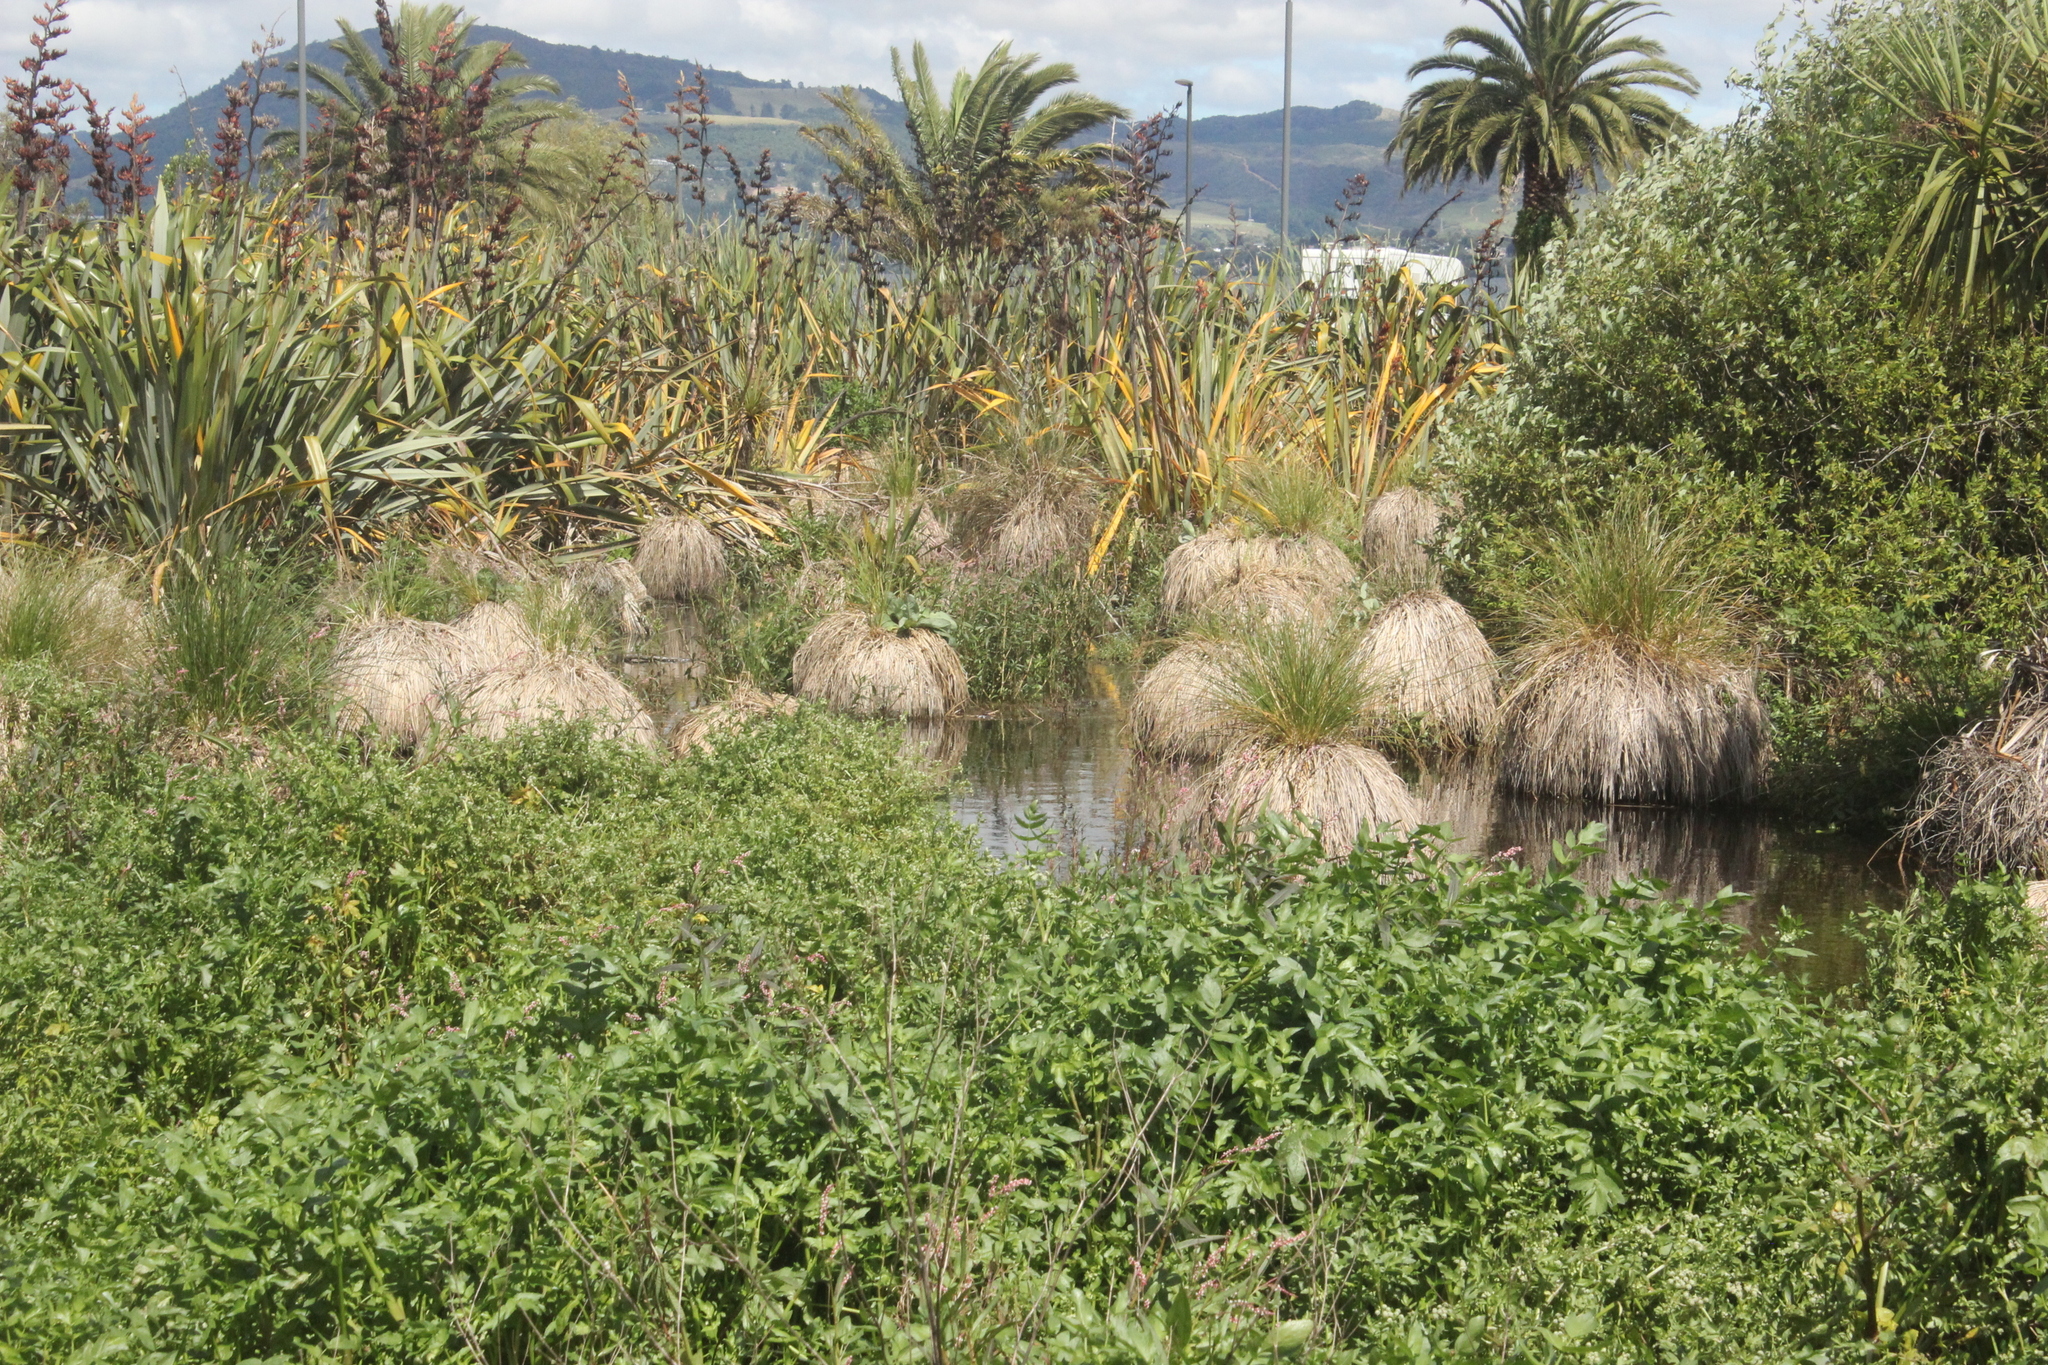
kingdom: Plantae
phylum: Tracheophyta
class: Liliopsida
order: Poales
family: Cyperaceae
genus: Carex
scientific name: Carex secta
